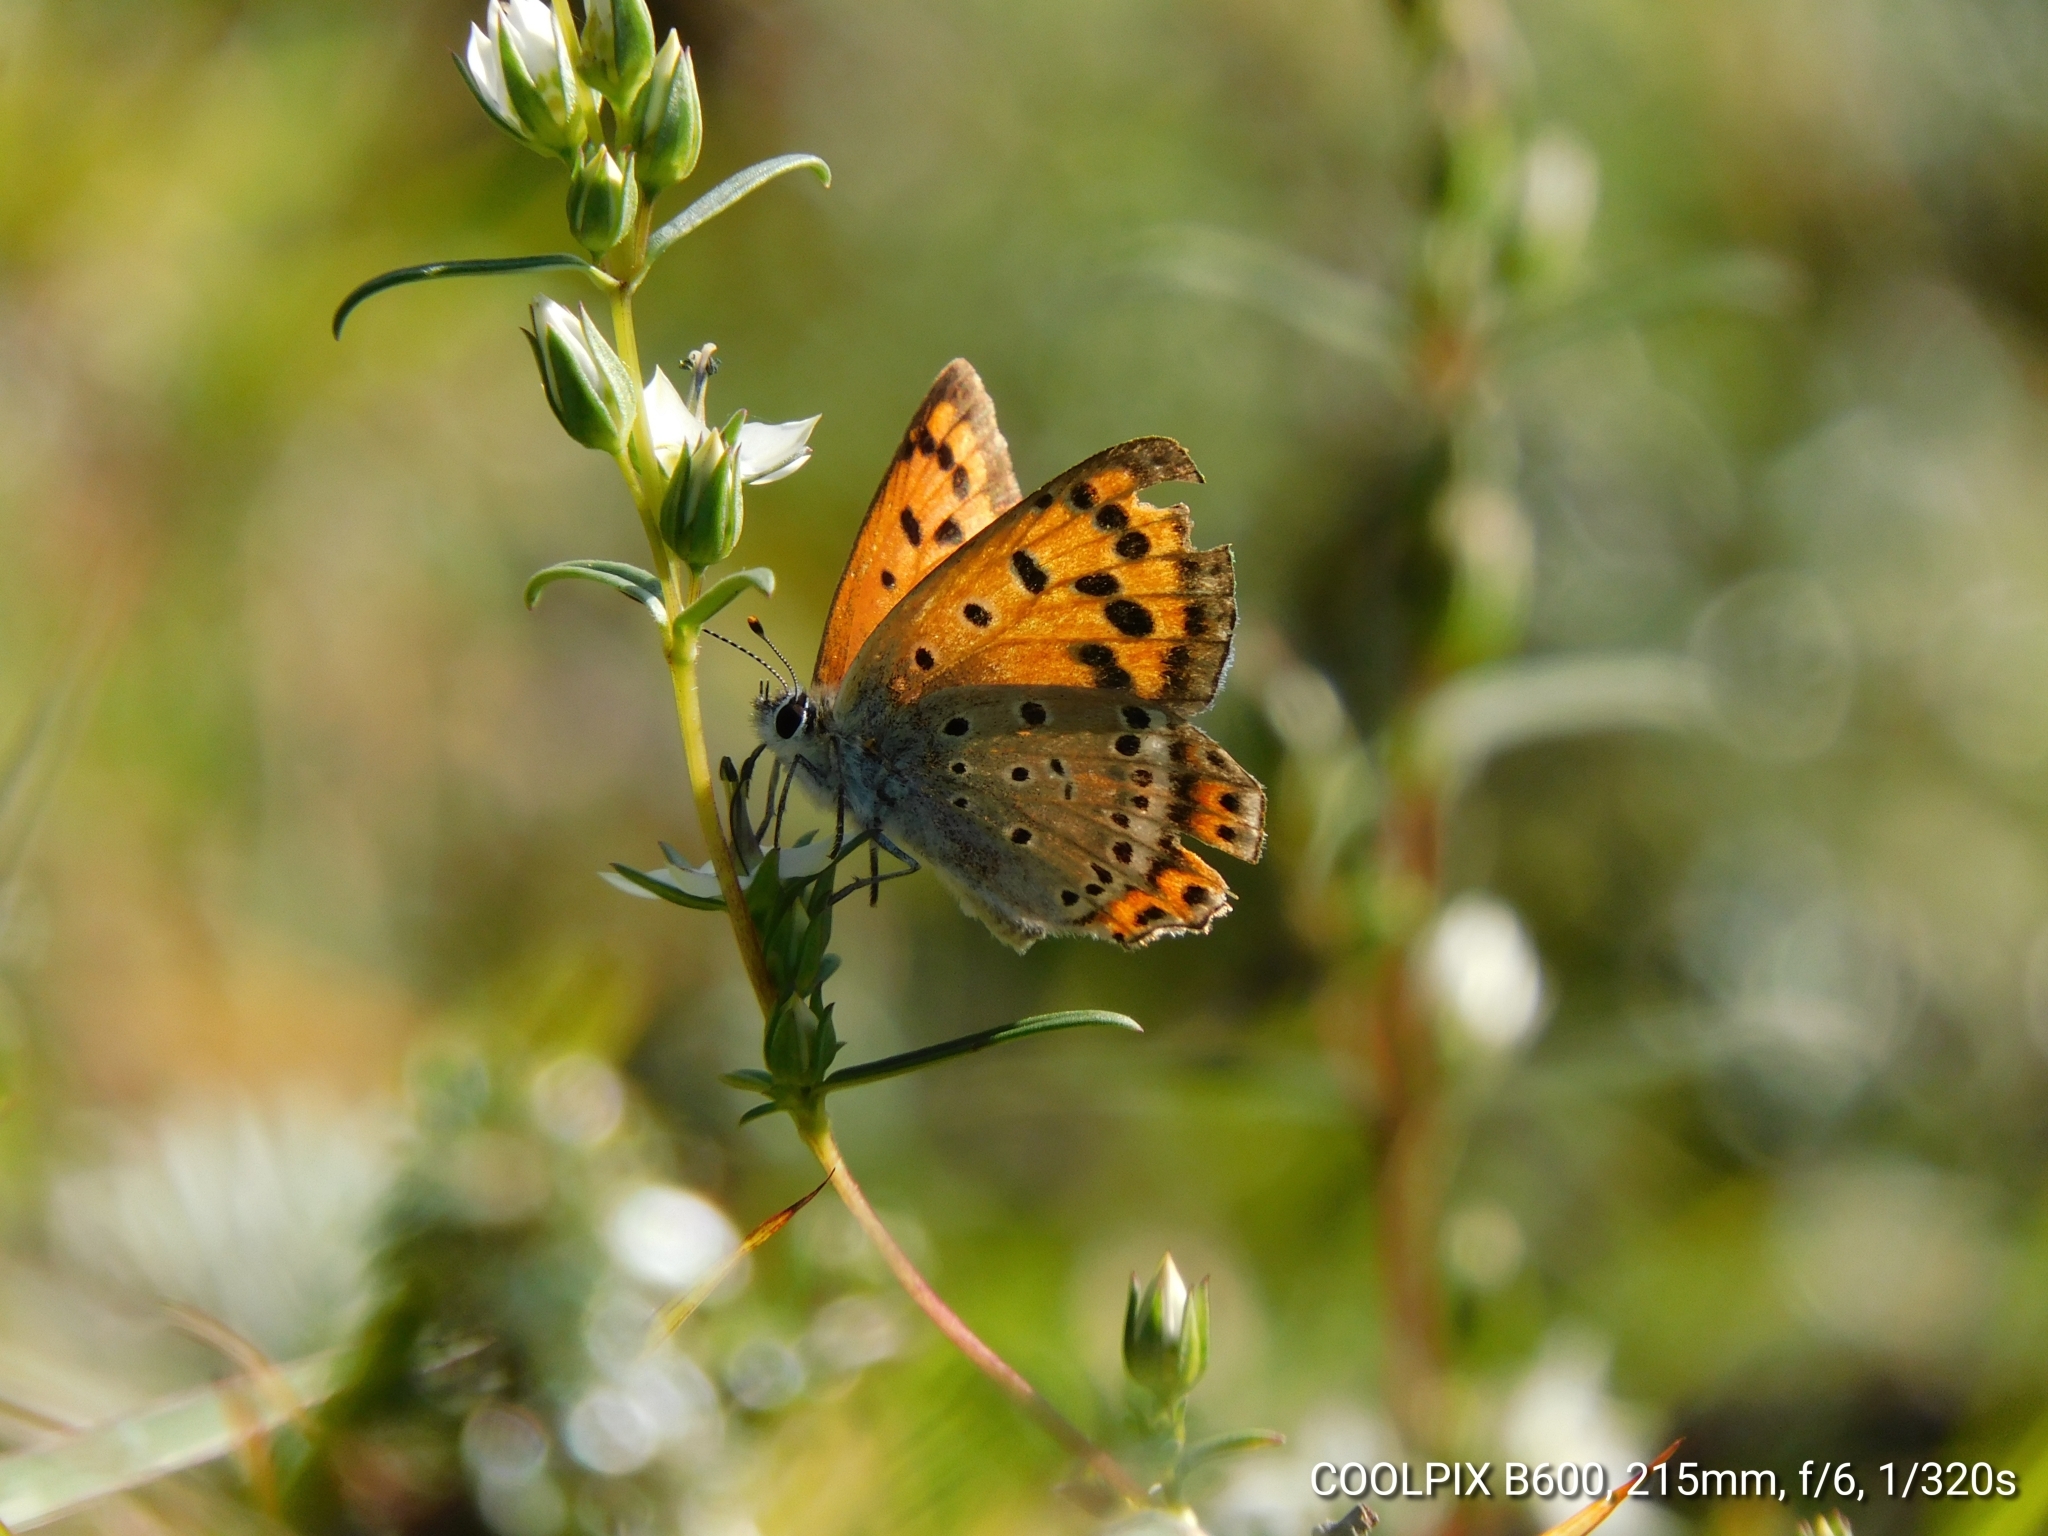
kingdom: Animalia
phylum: Arthropoda
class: Insecta
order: Lepidoptera
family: Lycaenidae
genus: Lycaena
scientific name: Lycaena panava
